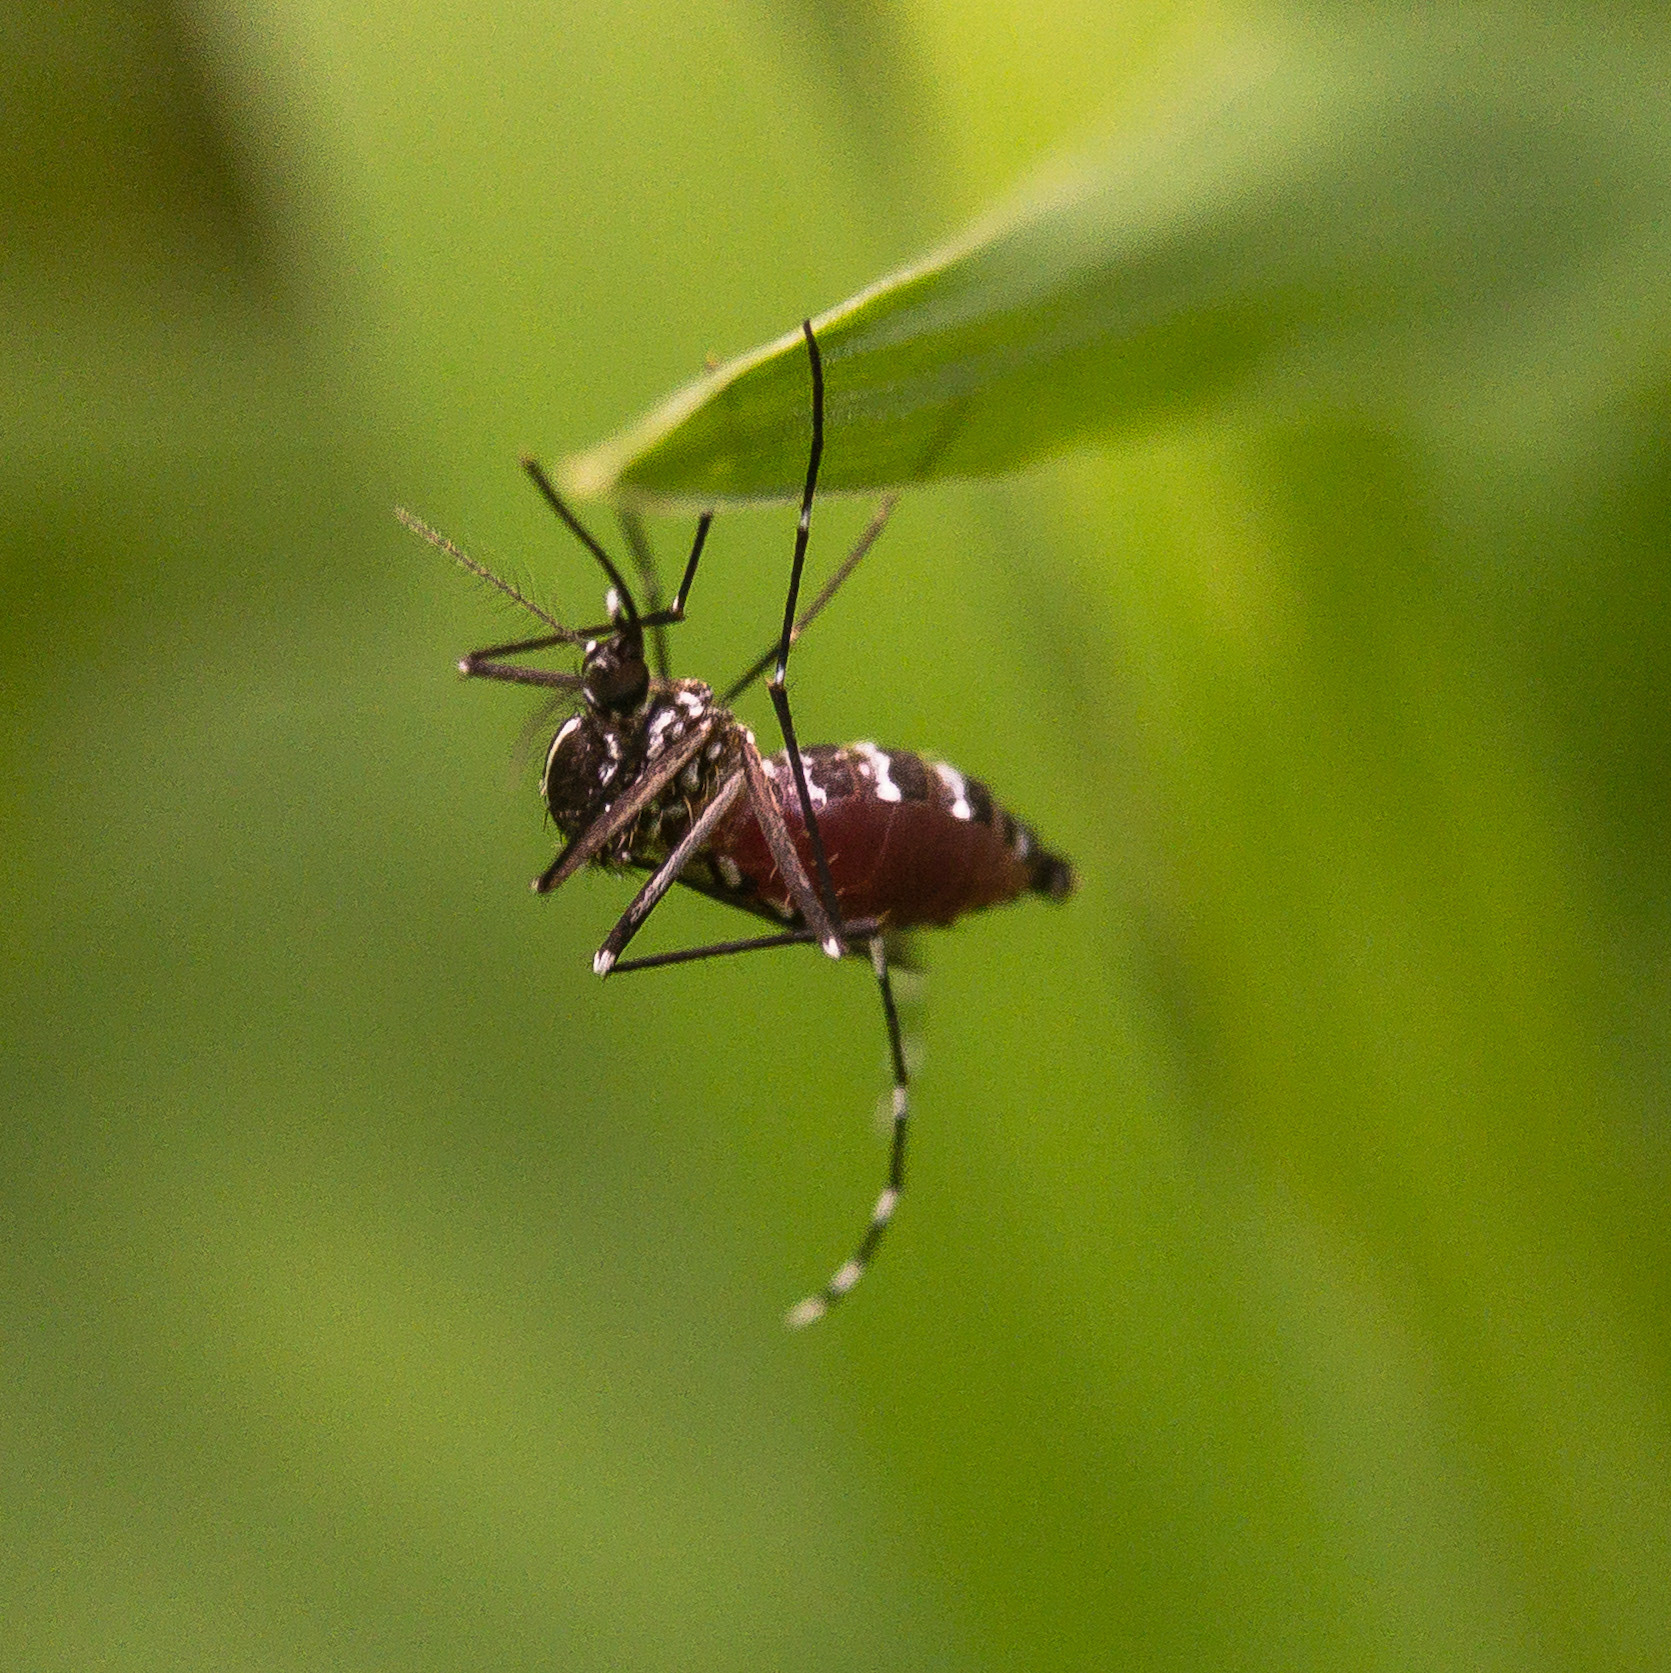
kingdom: Animalia
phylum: Arthropoda
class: Insecta
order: Diptera
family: Culicidae
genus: Aedes
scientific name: Aedes albopictus
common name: Tiger mosquito
